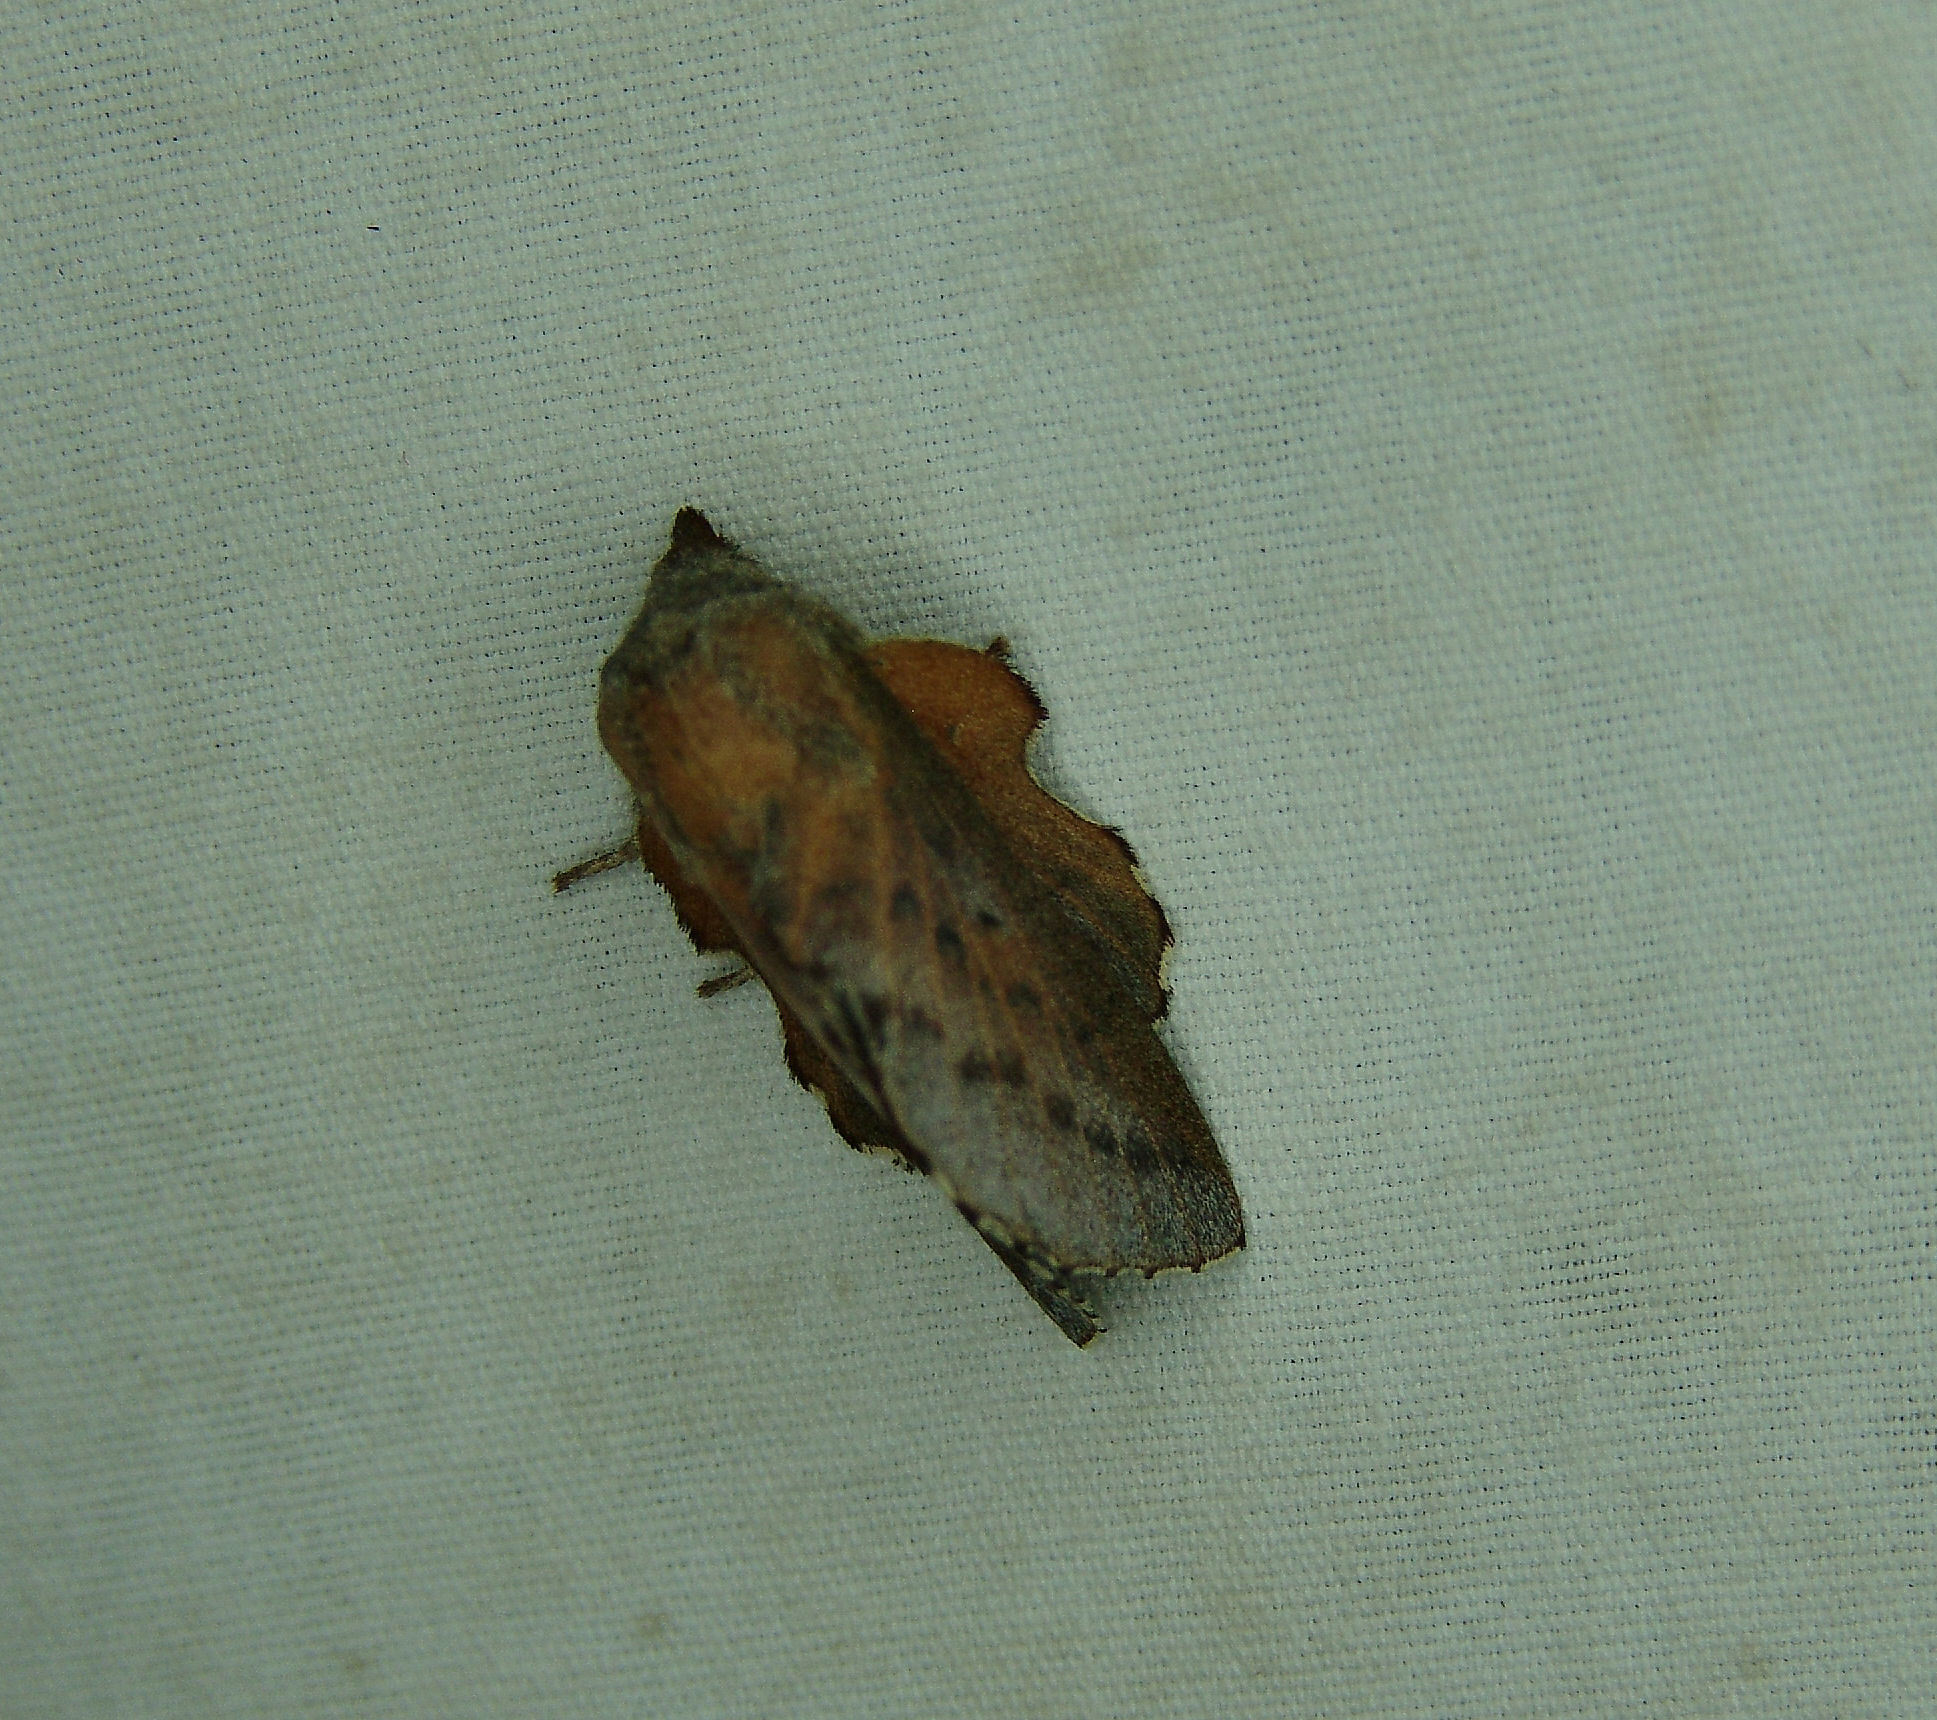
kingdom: Animalia
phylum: Arthropoda
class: Insecta
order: Lepidoptera
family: Lasiocampidae
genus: Phyllodesma
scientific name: Phyllodesma americana
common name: American lappet moth
